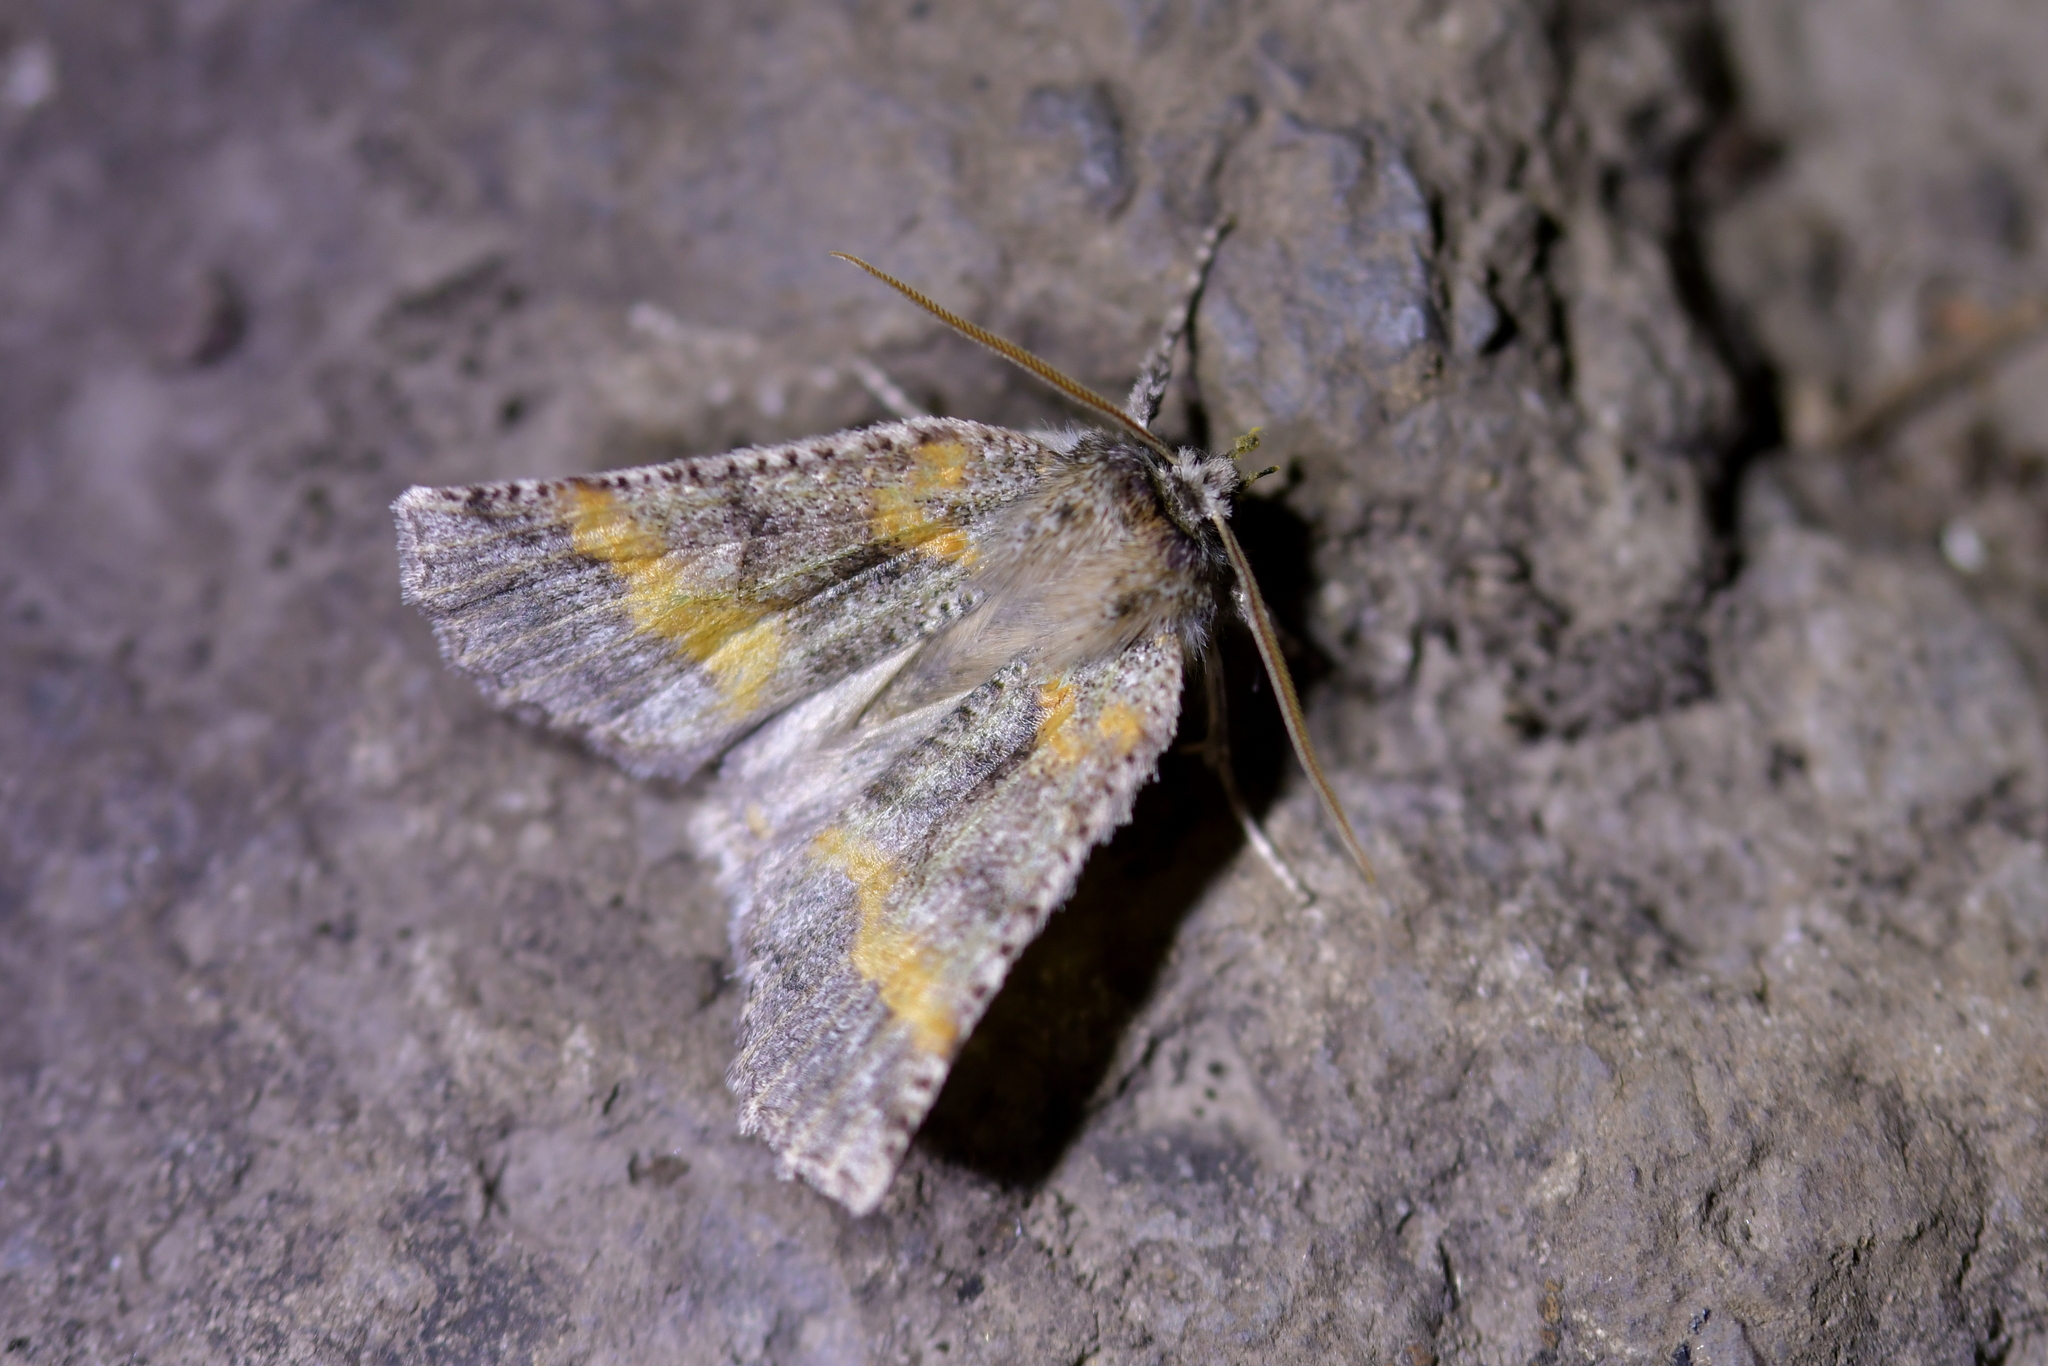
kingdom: Animalia
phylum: Arthropoda
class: Insecta
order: Lepidoptera
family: Geometridae
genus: Declana
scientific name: Declana floccosa
